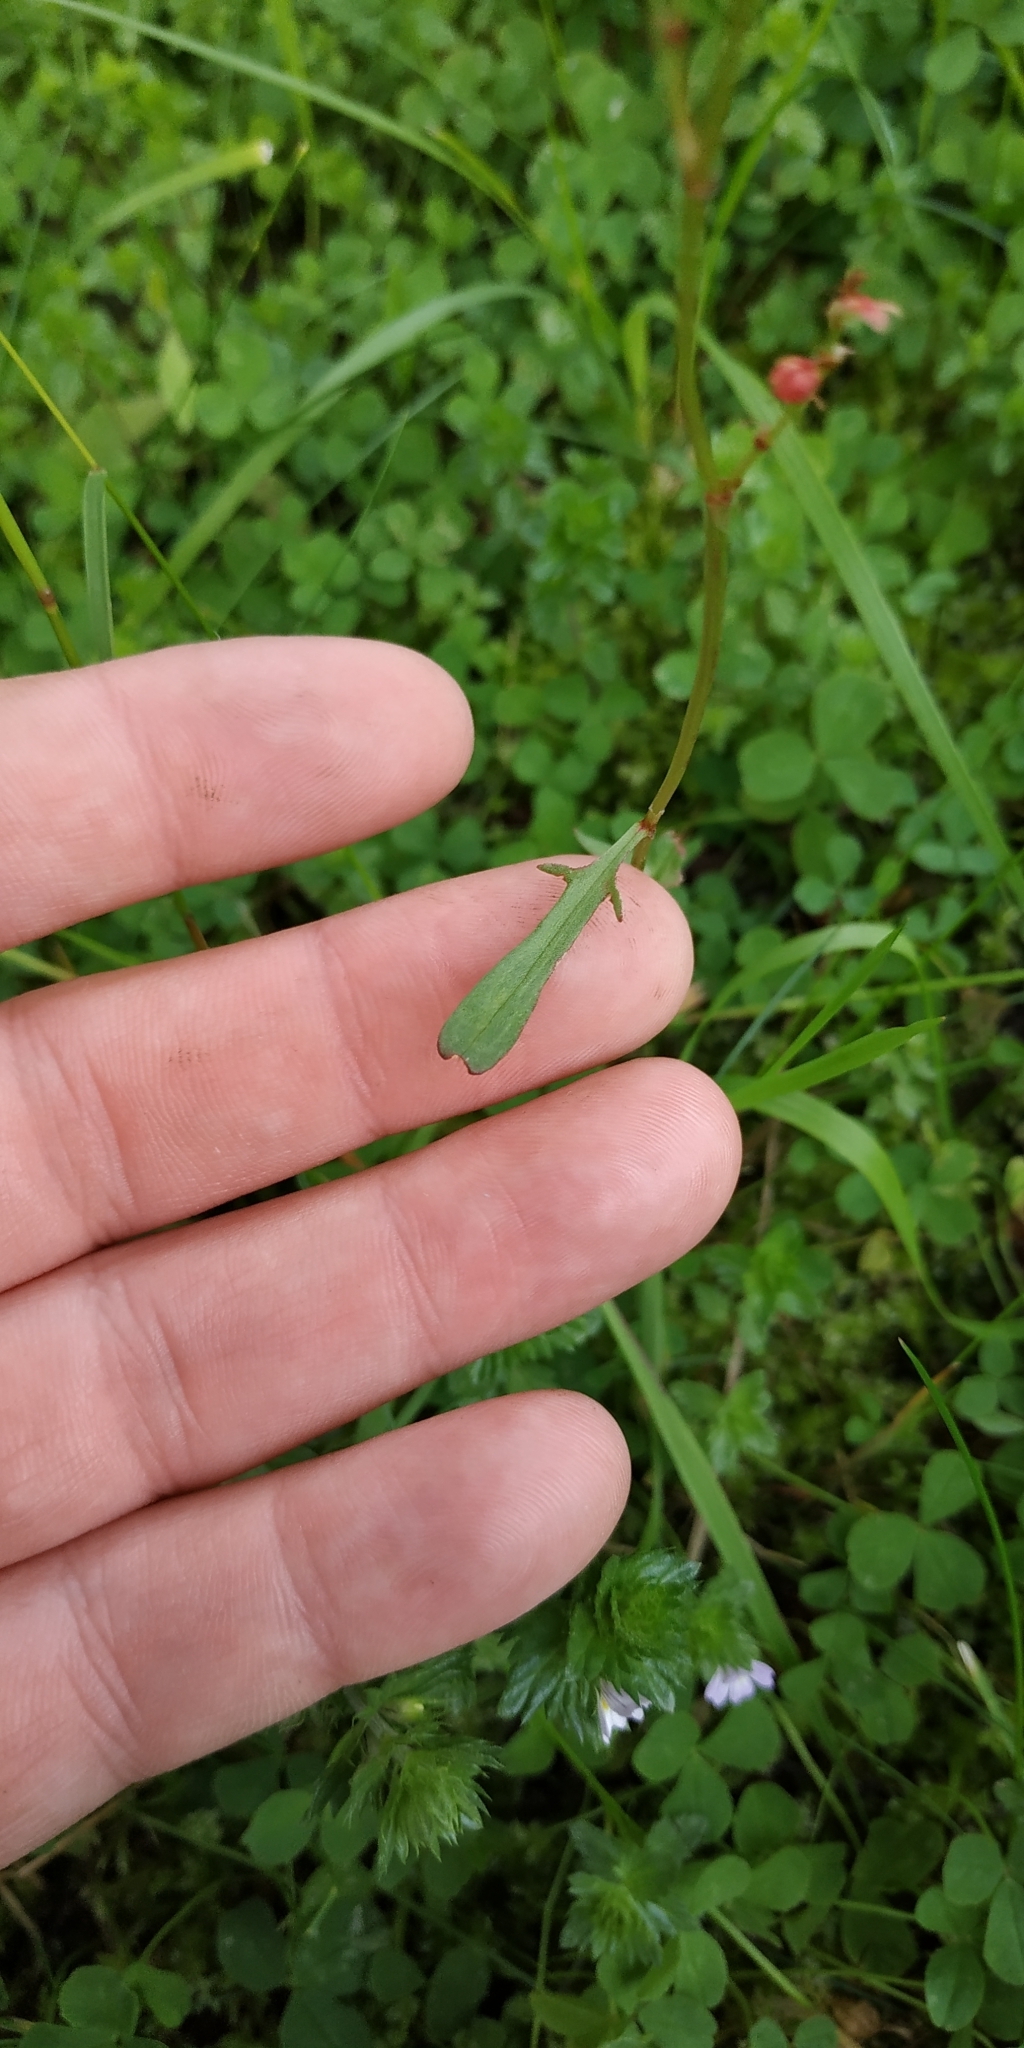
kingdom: Plantae
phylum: Tracheophyta
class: Magnoliopsida
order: Caryophyllales
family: Polygonaceae
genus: Rumex
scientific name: Rumex acetosella
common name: Common sheep sorrel
